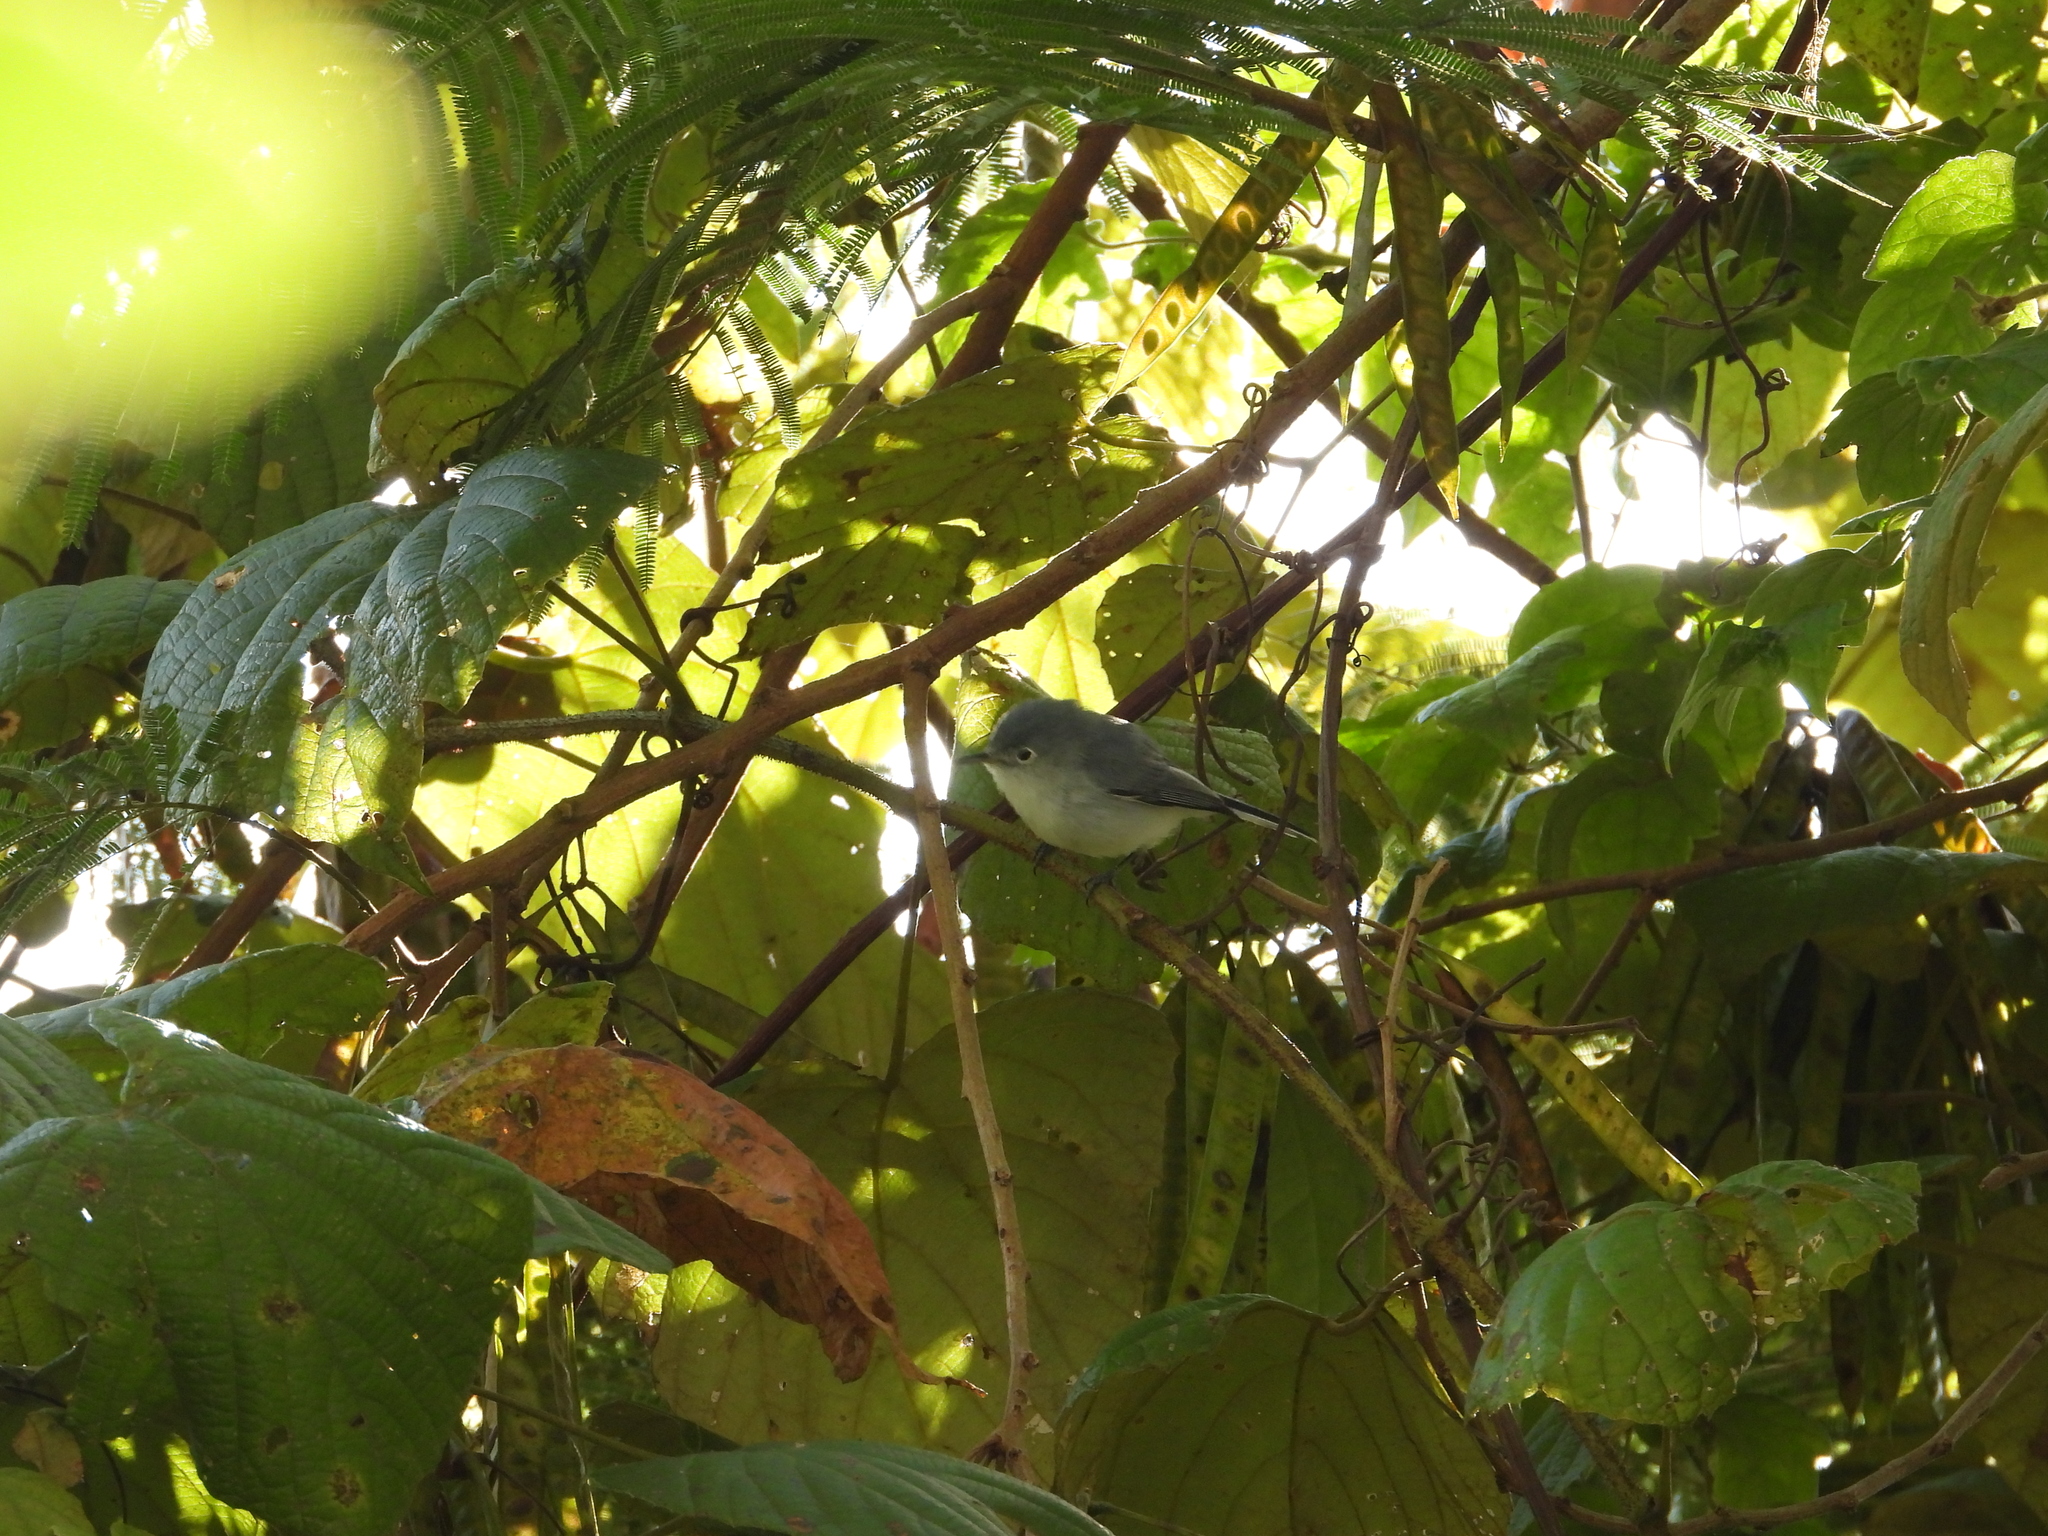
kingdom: Animalia
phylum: Chordata
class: Aves
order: Passeriformes
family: Polioptilidae
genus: Polioptila
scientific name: Polioptila caerulea
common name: Blue-gray gnatcatcher
